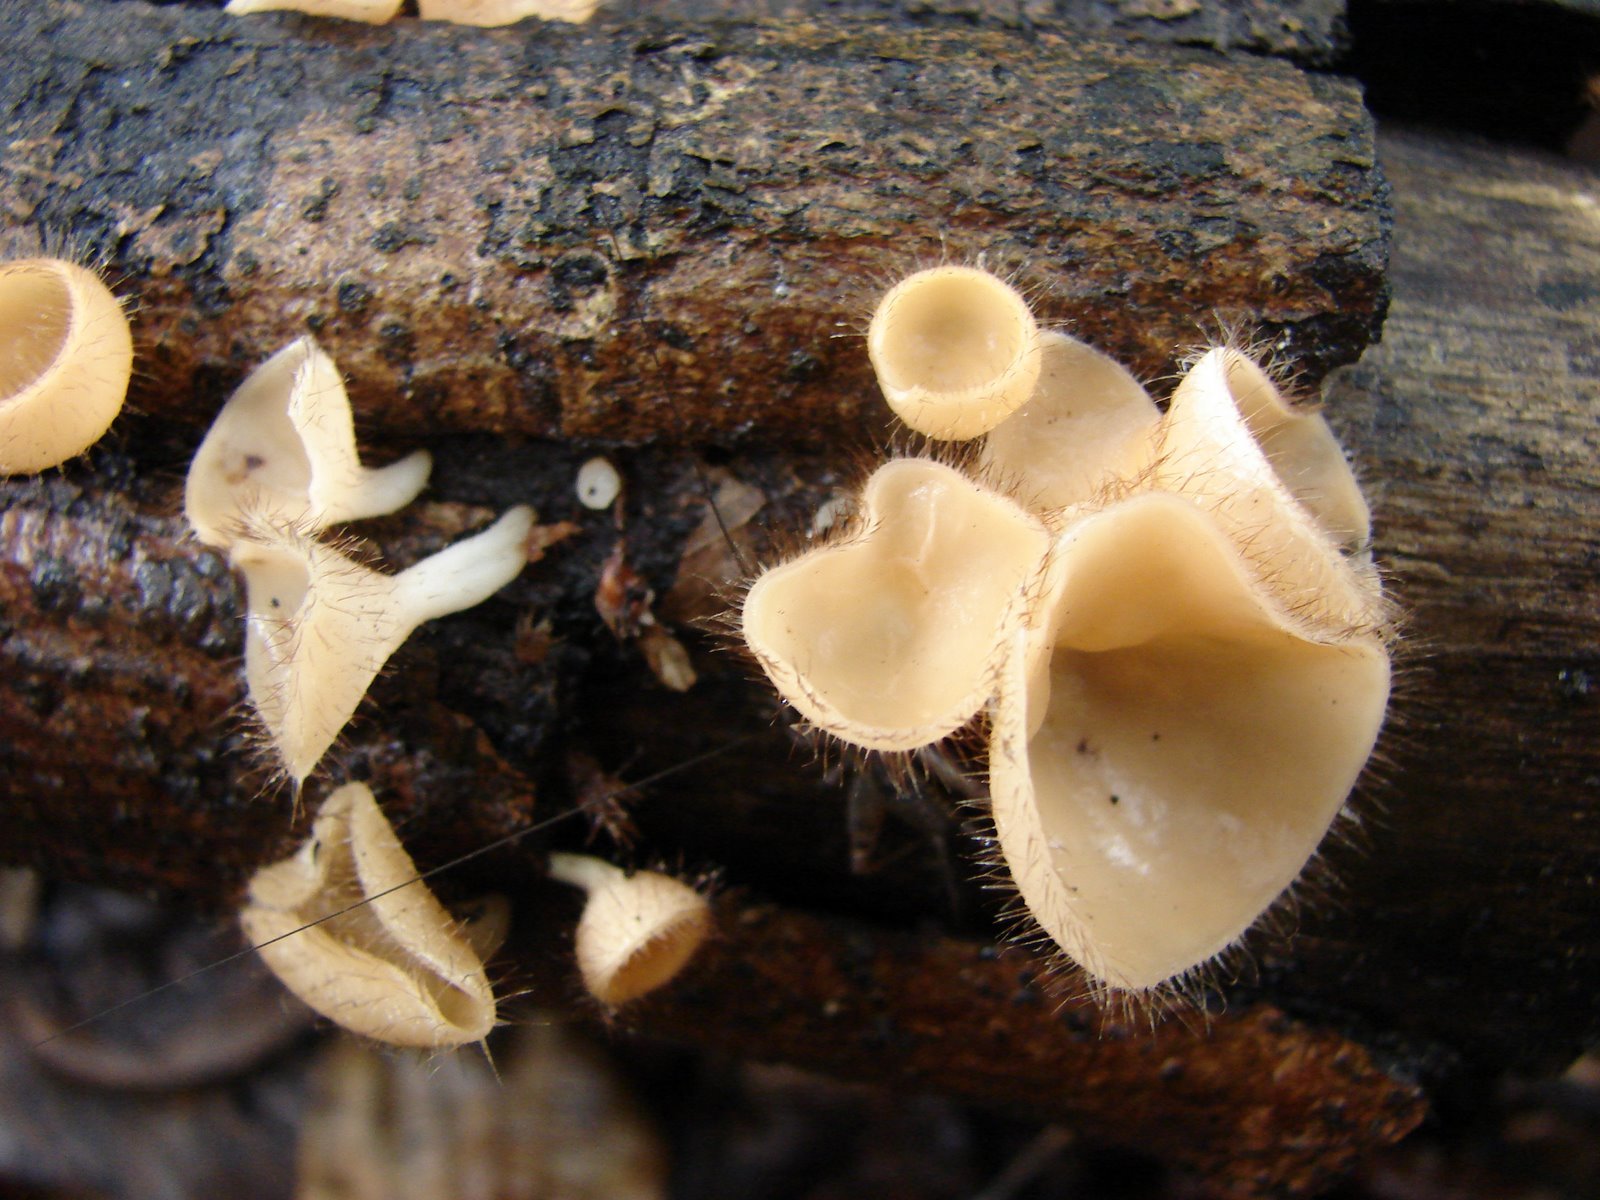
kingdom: Fungi
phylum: Ascomycota
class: Pezizomycetes
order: Pezizales
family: Sarcoscyphaceae
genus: Cookeina
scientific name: Cookeina tricholoma
